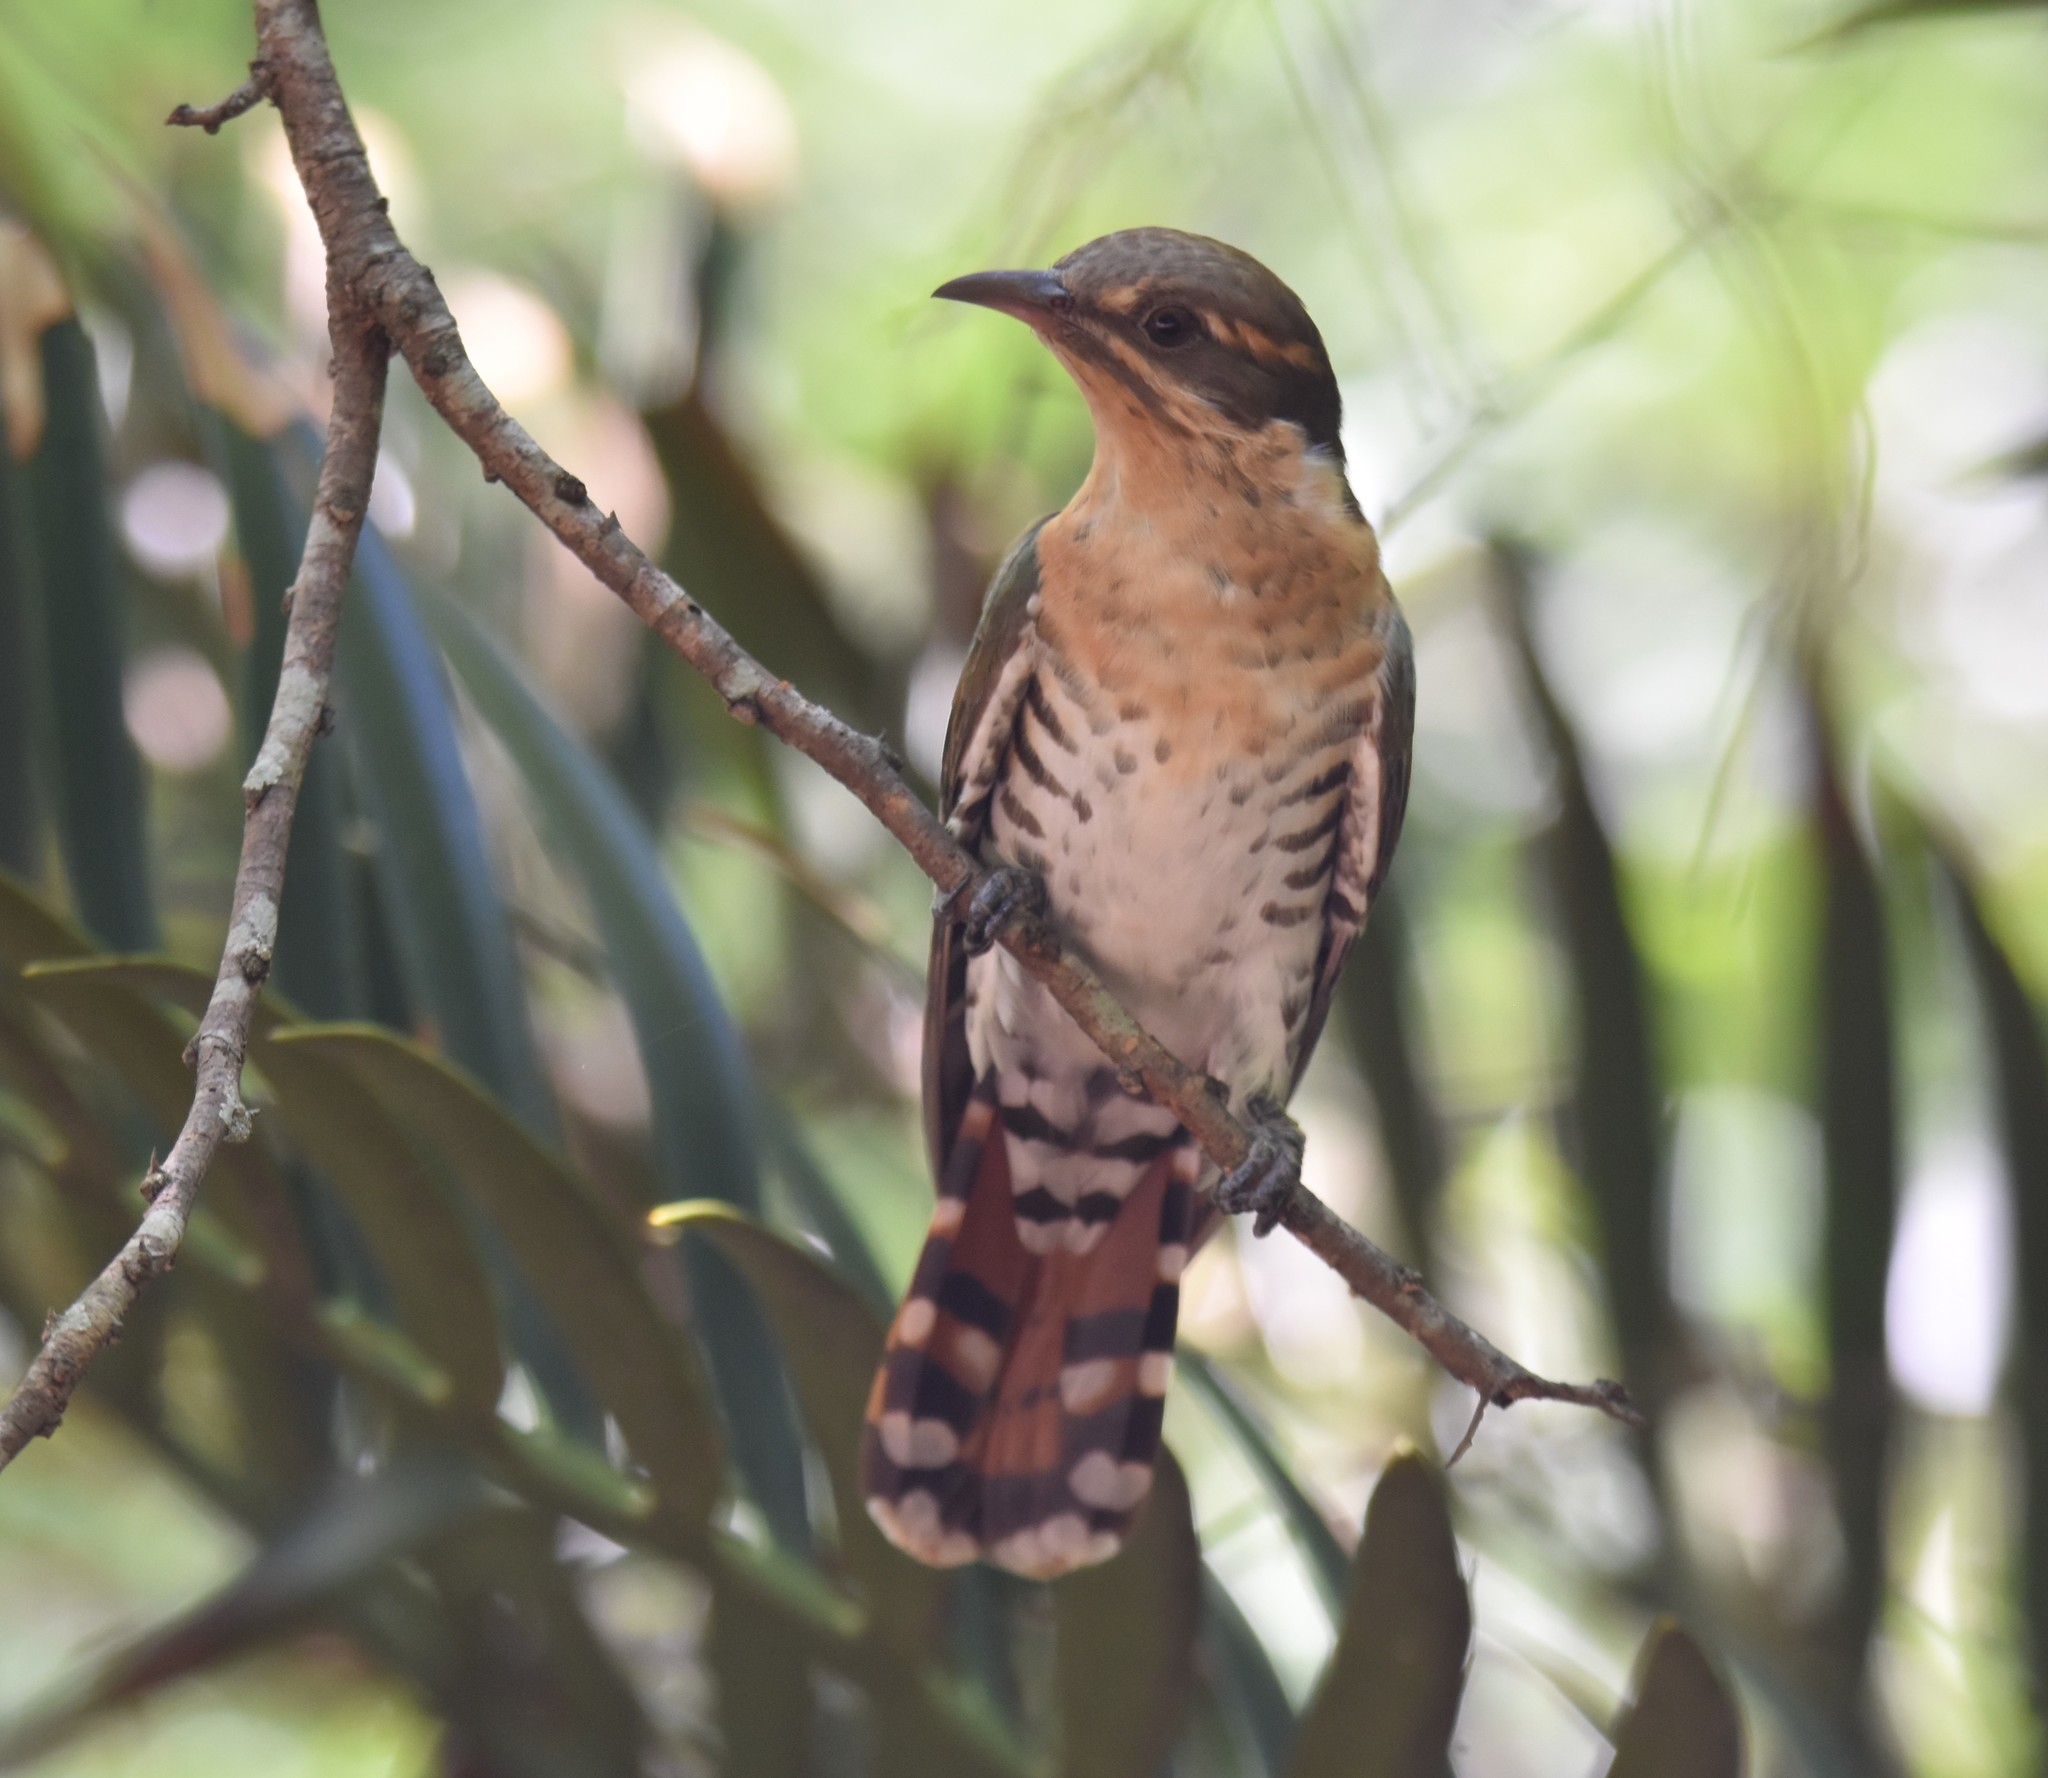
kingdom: Animalia
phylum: Chordata
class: Aves
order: Cuculiformes
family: Cuculidae
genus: Chrysococcyx
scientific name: Chrysococcyx caprius
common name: Diederik cuckoo
